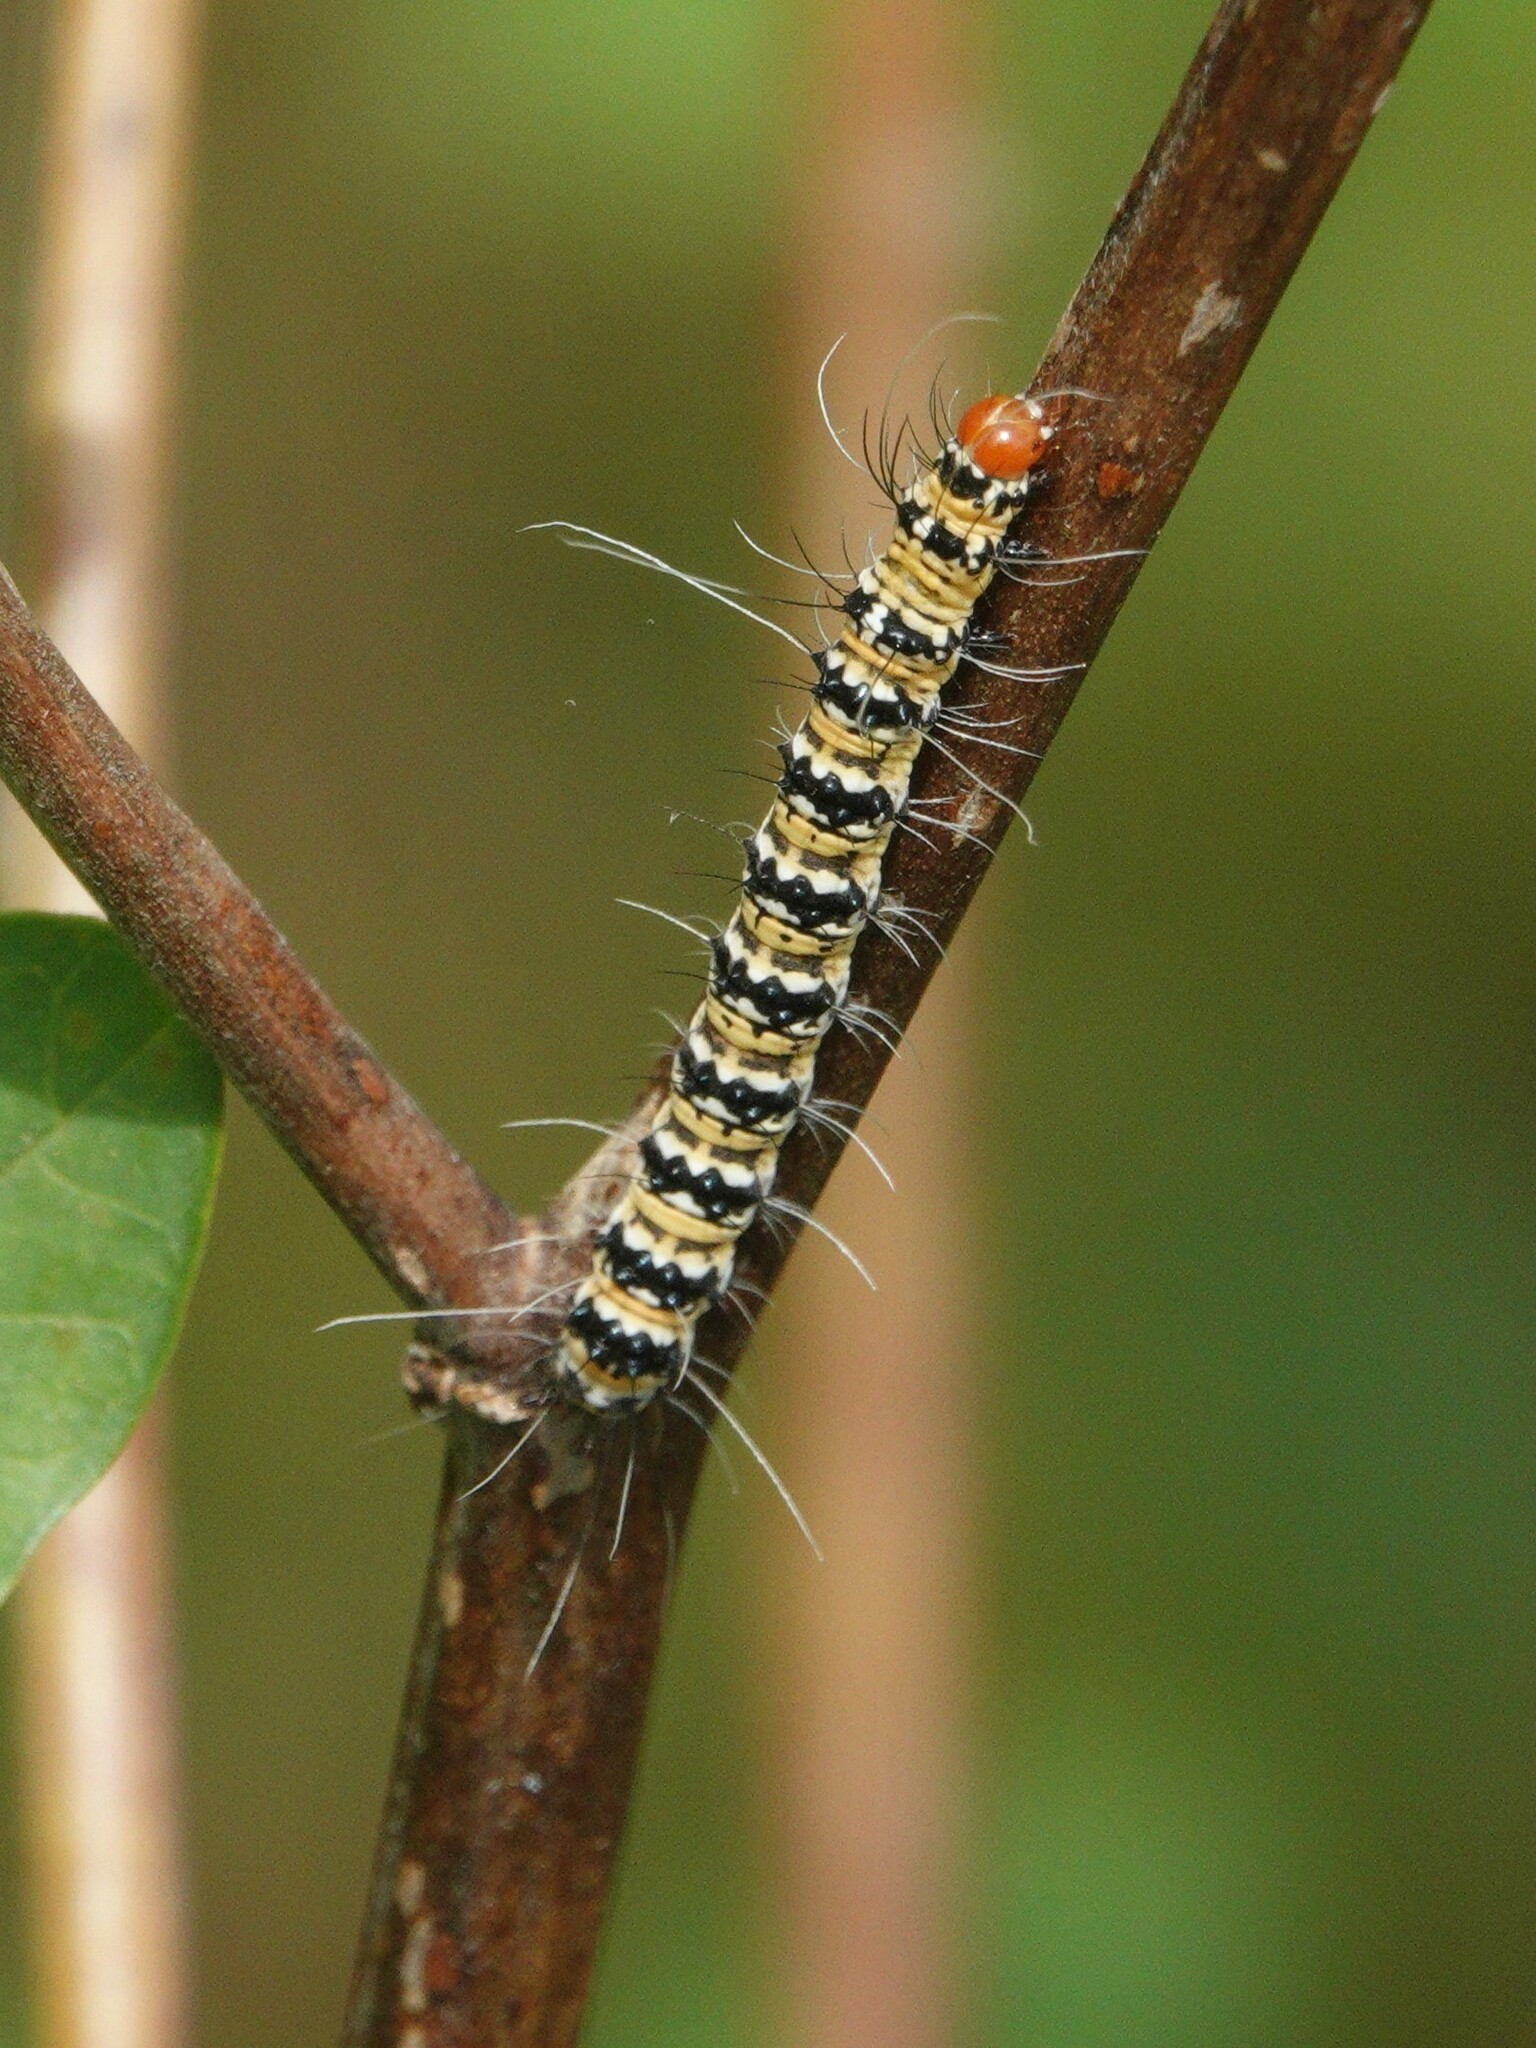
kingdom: Animalia
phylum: Arthropoda
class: Insecta
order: Lepidoptera
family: Erebidae
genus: Utetheisa
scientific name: Utetheisa ornatrix
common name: Beautiful utetheisa
